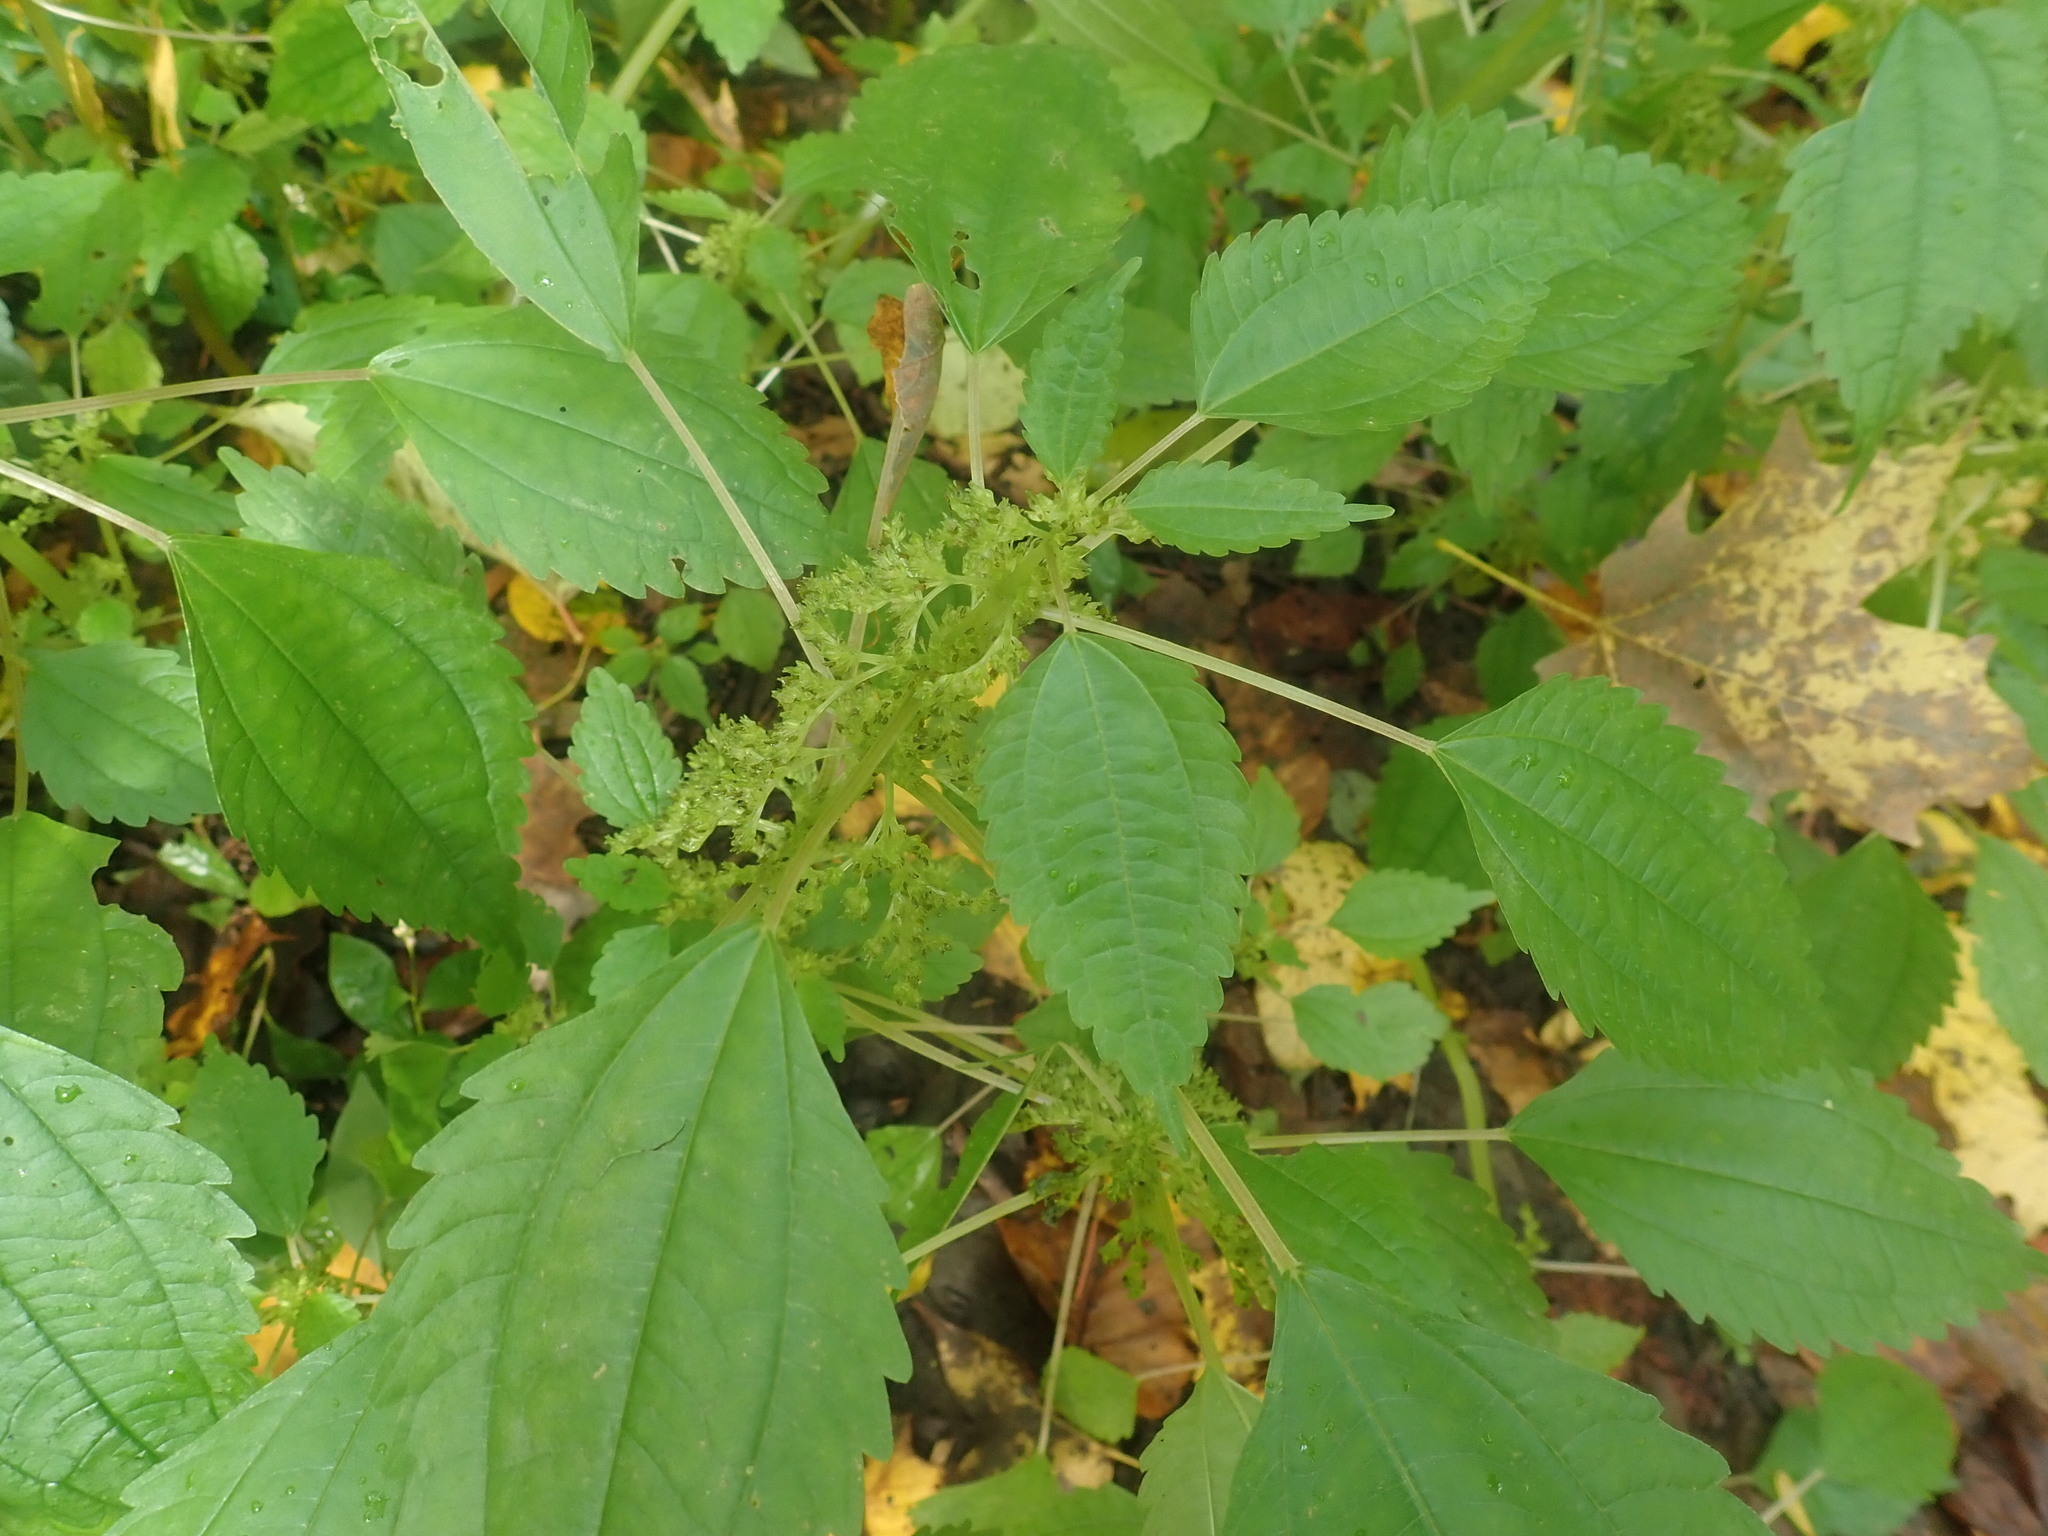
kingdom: Plantae
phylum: Tracheophyta
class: Magnoliopsida
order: Rosales
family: Urticaceae
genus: Pilea
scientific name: Pilea pumila
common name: Clearweed
